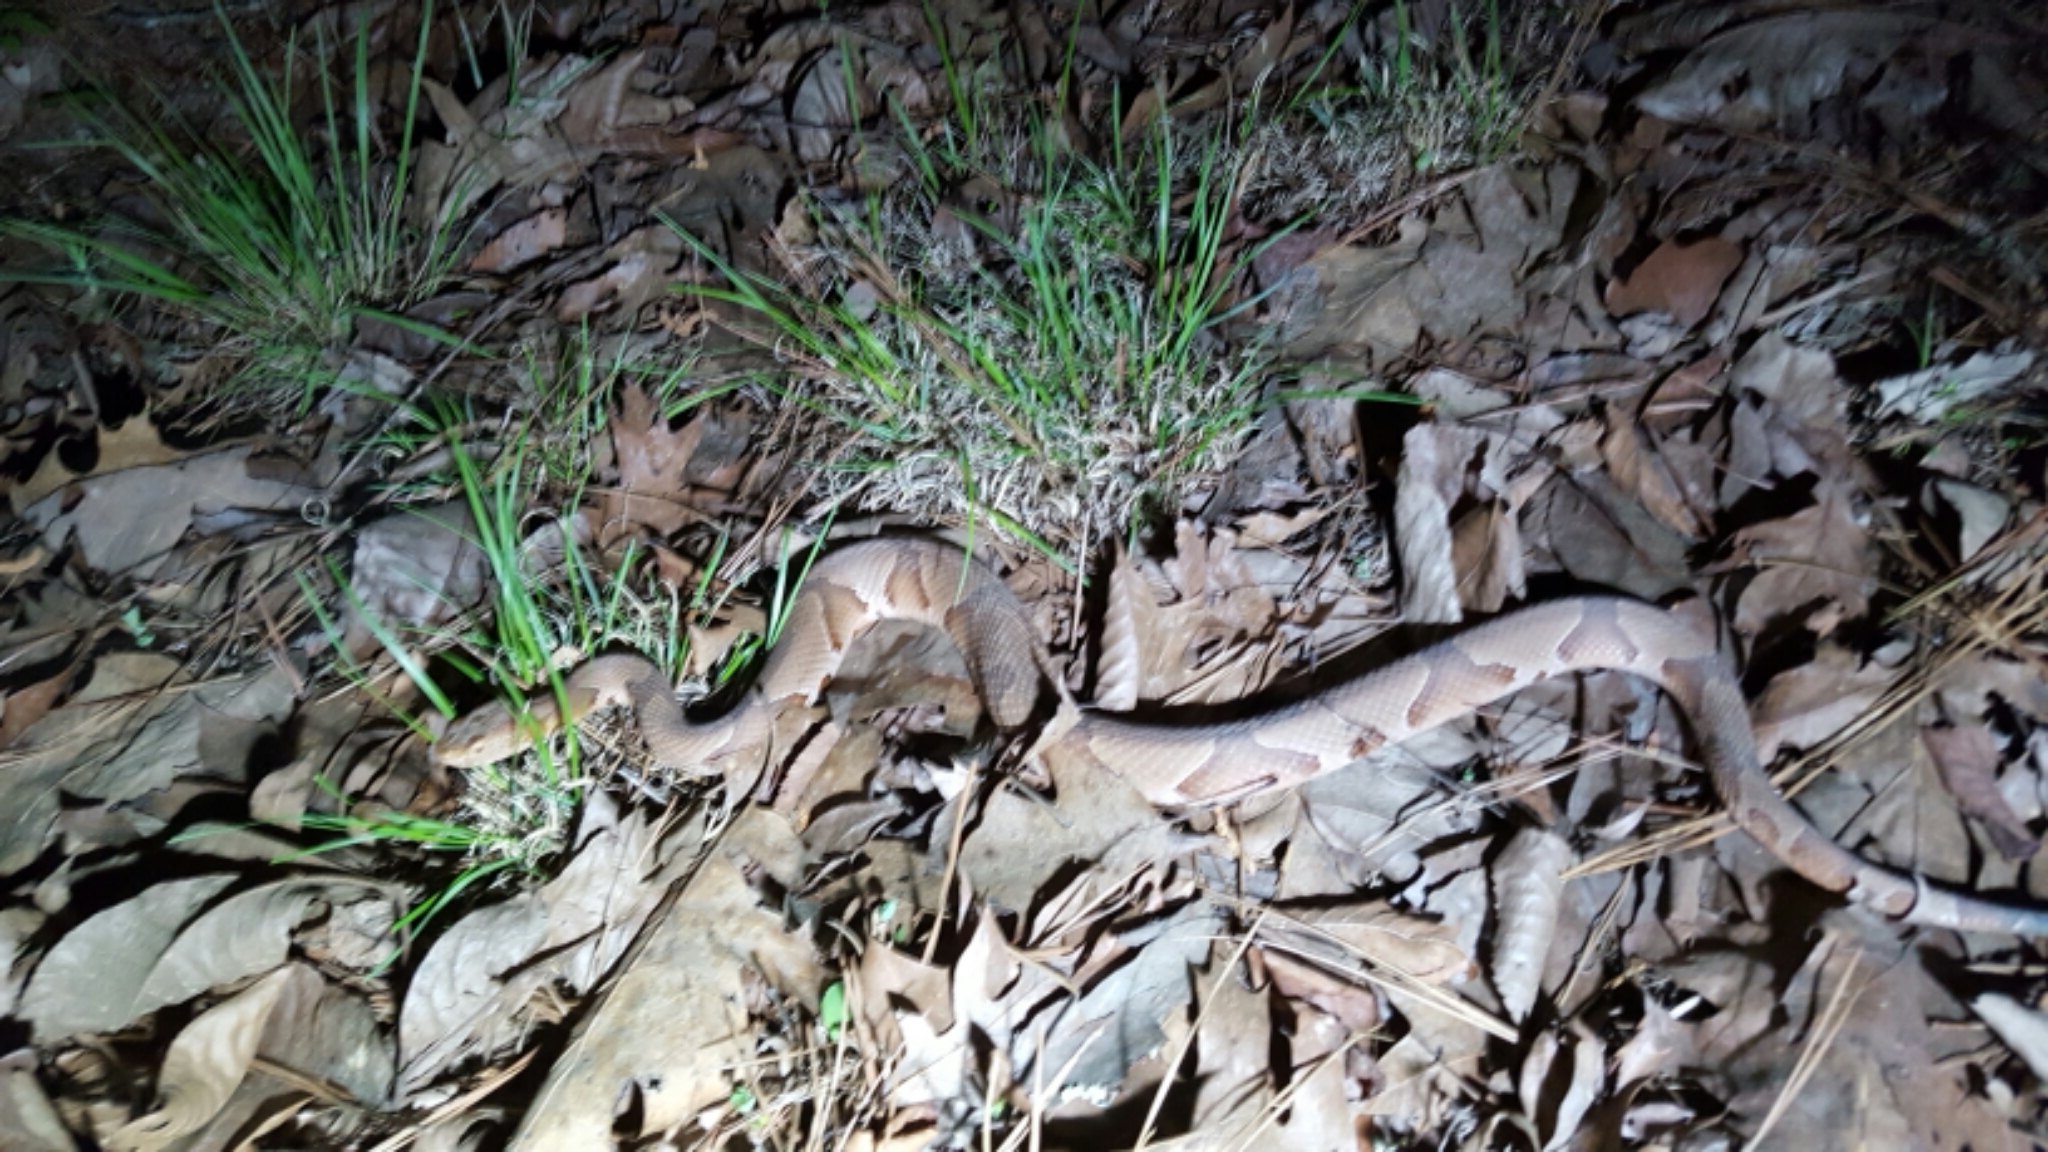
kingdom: Animalia
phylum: Chordata
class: Squamata
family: Viperidae
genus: Agkistrodon
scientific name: Agkistrodon contortrix
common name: Northern copperhead
